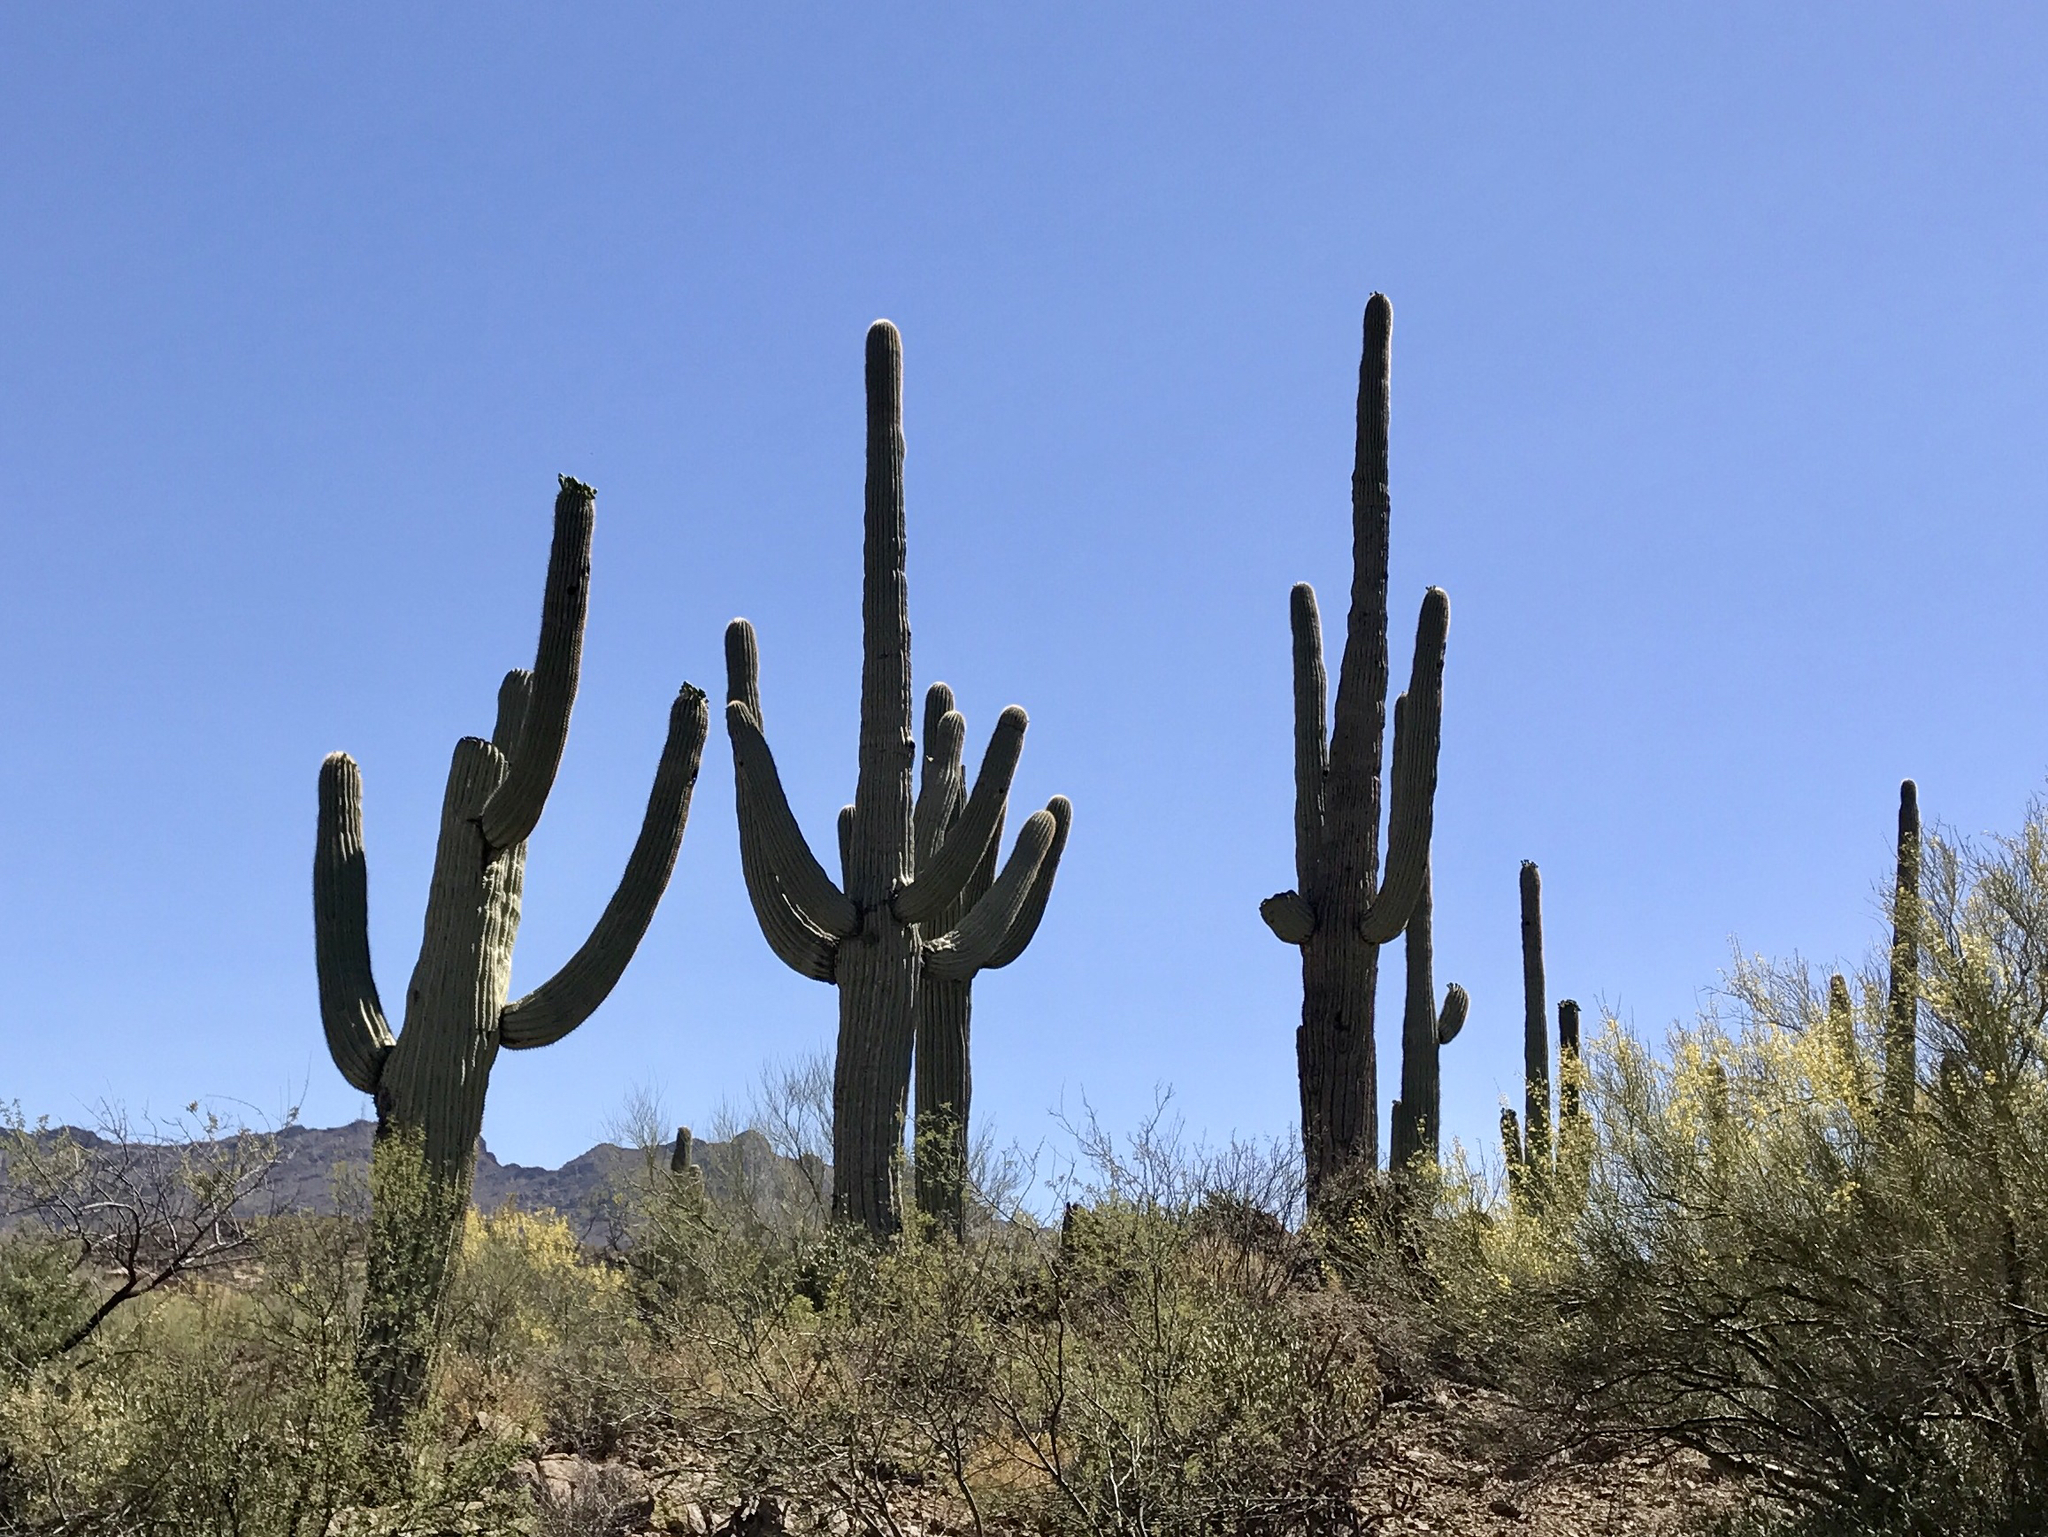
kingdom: Plantae
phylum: Tracheophyta
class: Magnoliopsida
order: Caryophyllales
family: Cactaceae
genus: Carnegiea
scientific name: Carnegiea gigantea
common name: Saguaro
